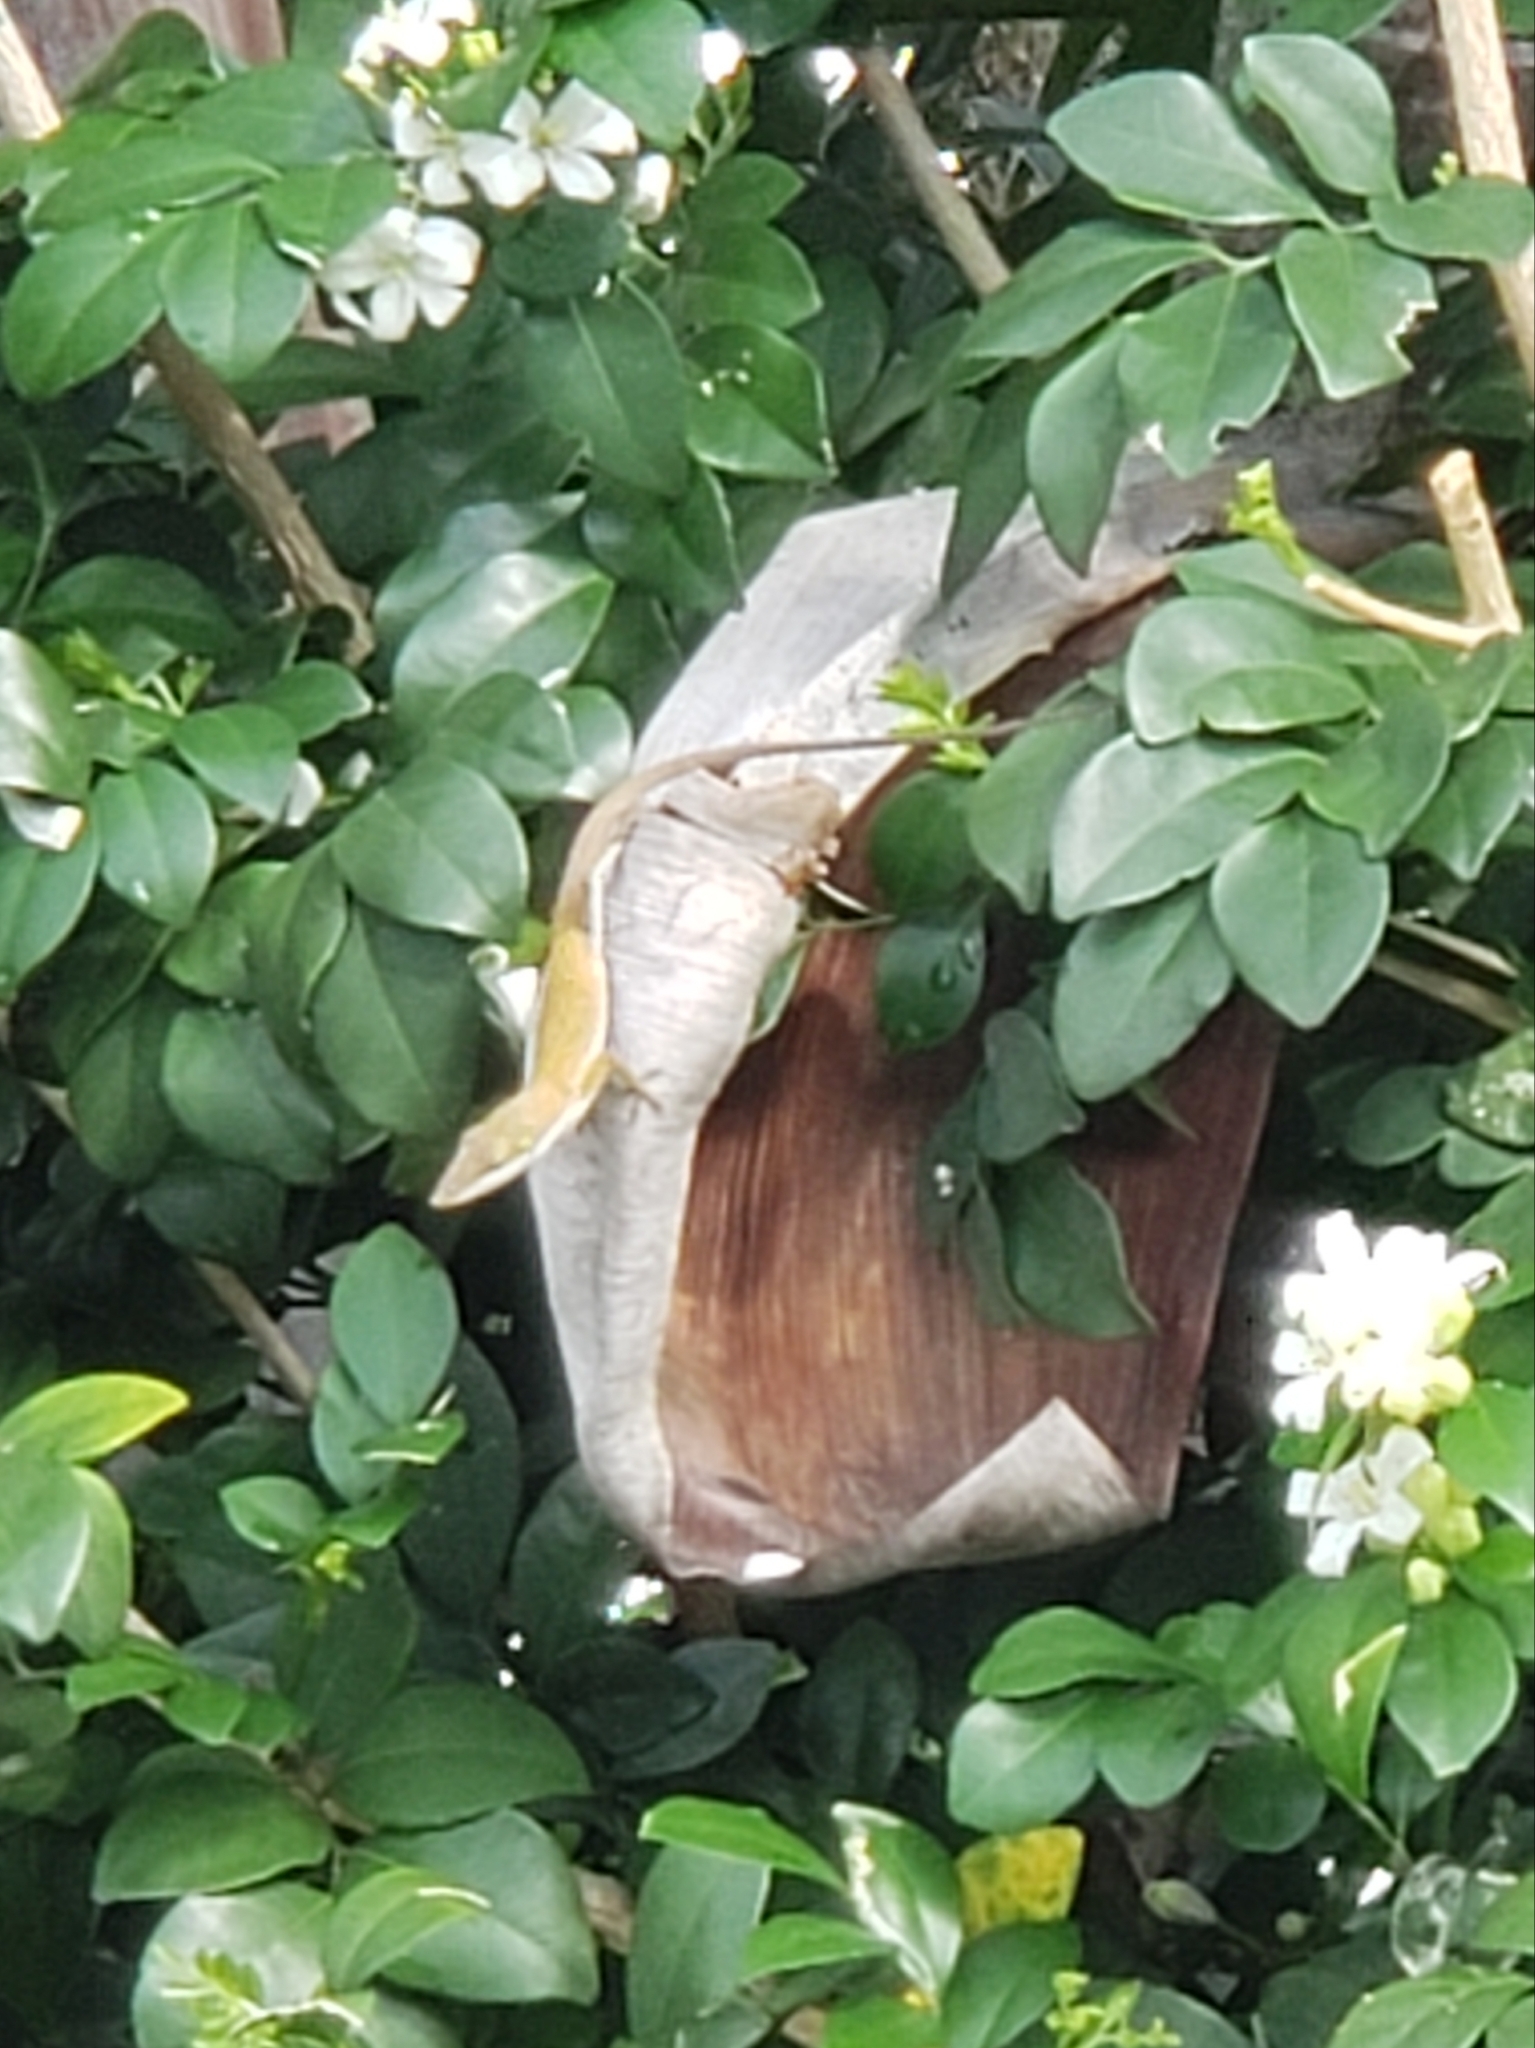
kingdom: Animalia
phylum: Chordata
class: Squamata
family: Dactyloidae
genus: Anolis
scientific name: Anolis carolinensis
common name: Green anole
